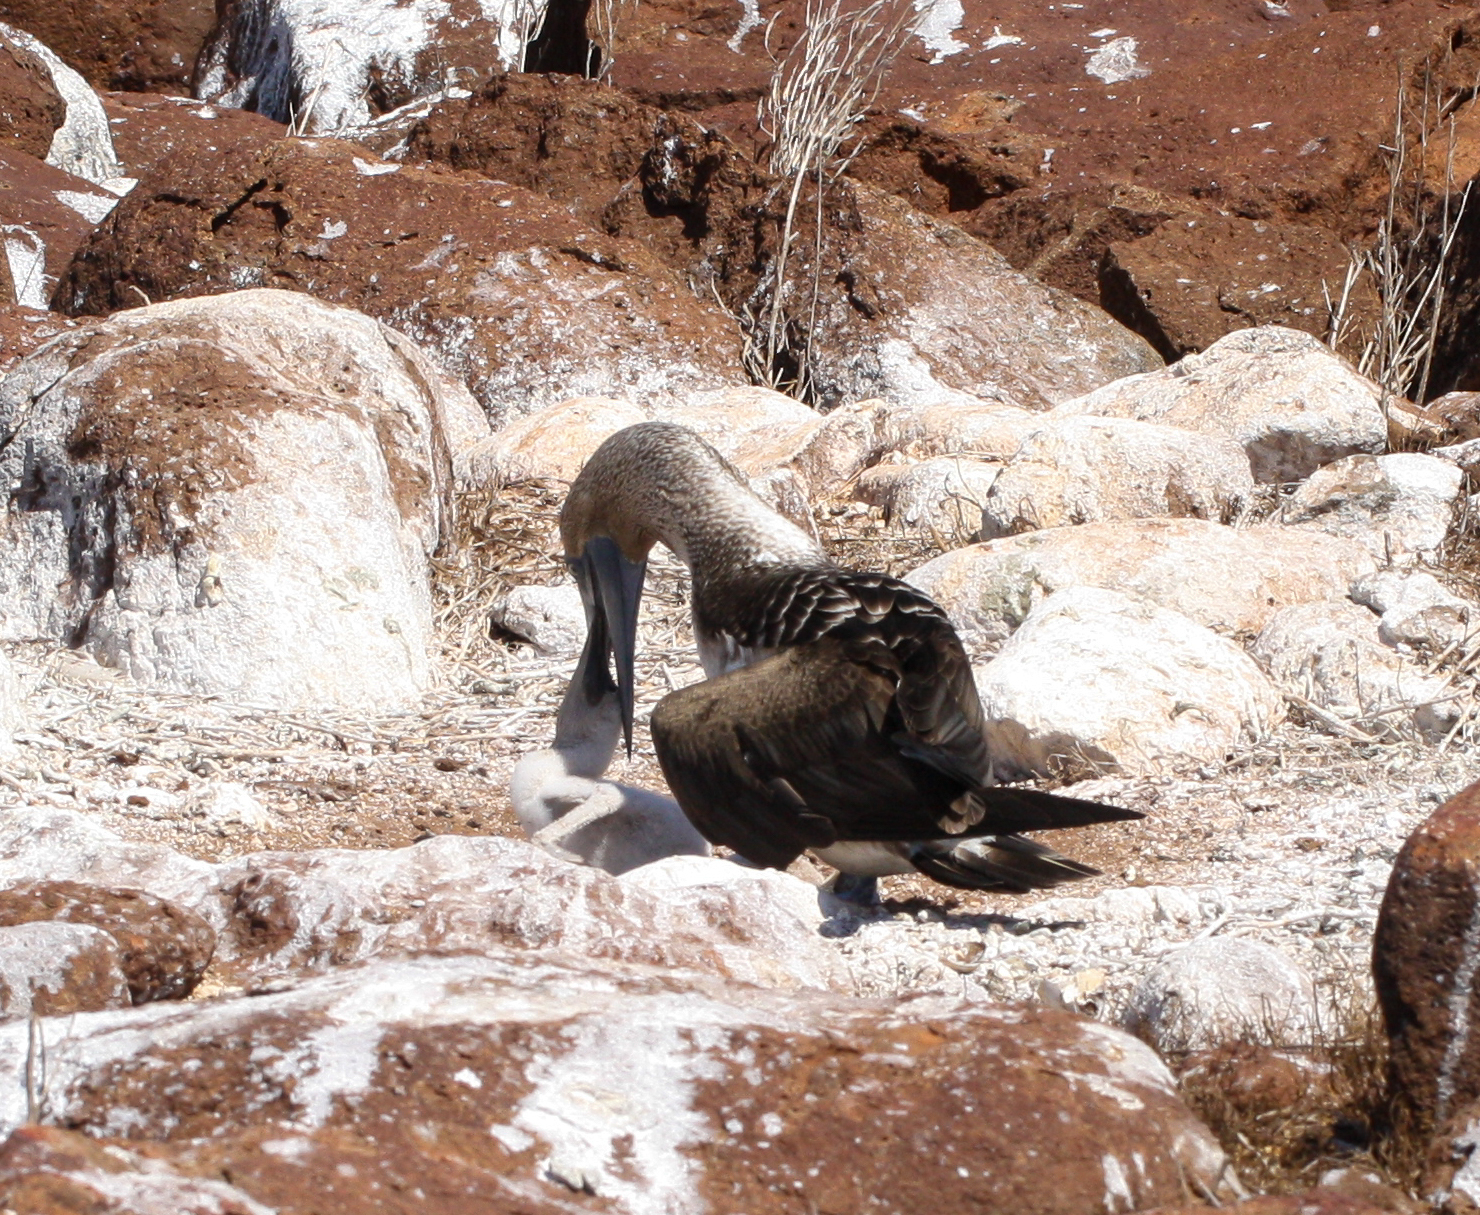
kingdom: Animalia
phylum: Chordata
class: Aves
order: Suliformes
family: Sulidae
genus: Sula
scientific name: Sula nebouxii
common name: Blue-footed booby
